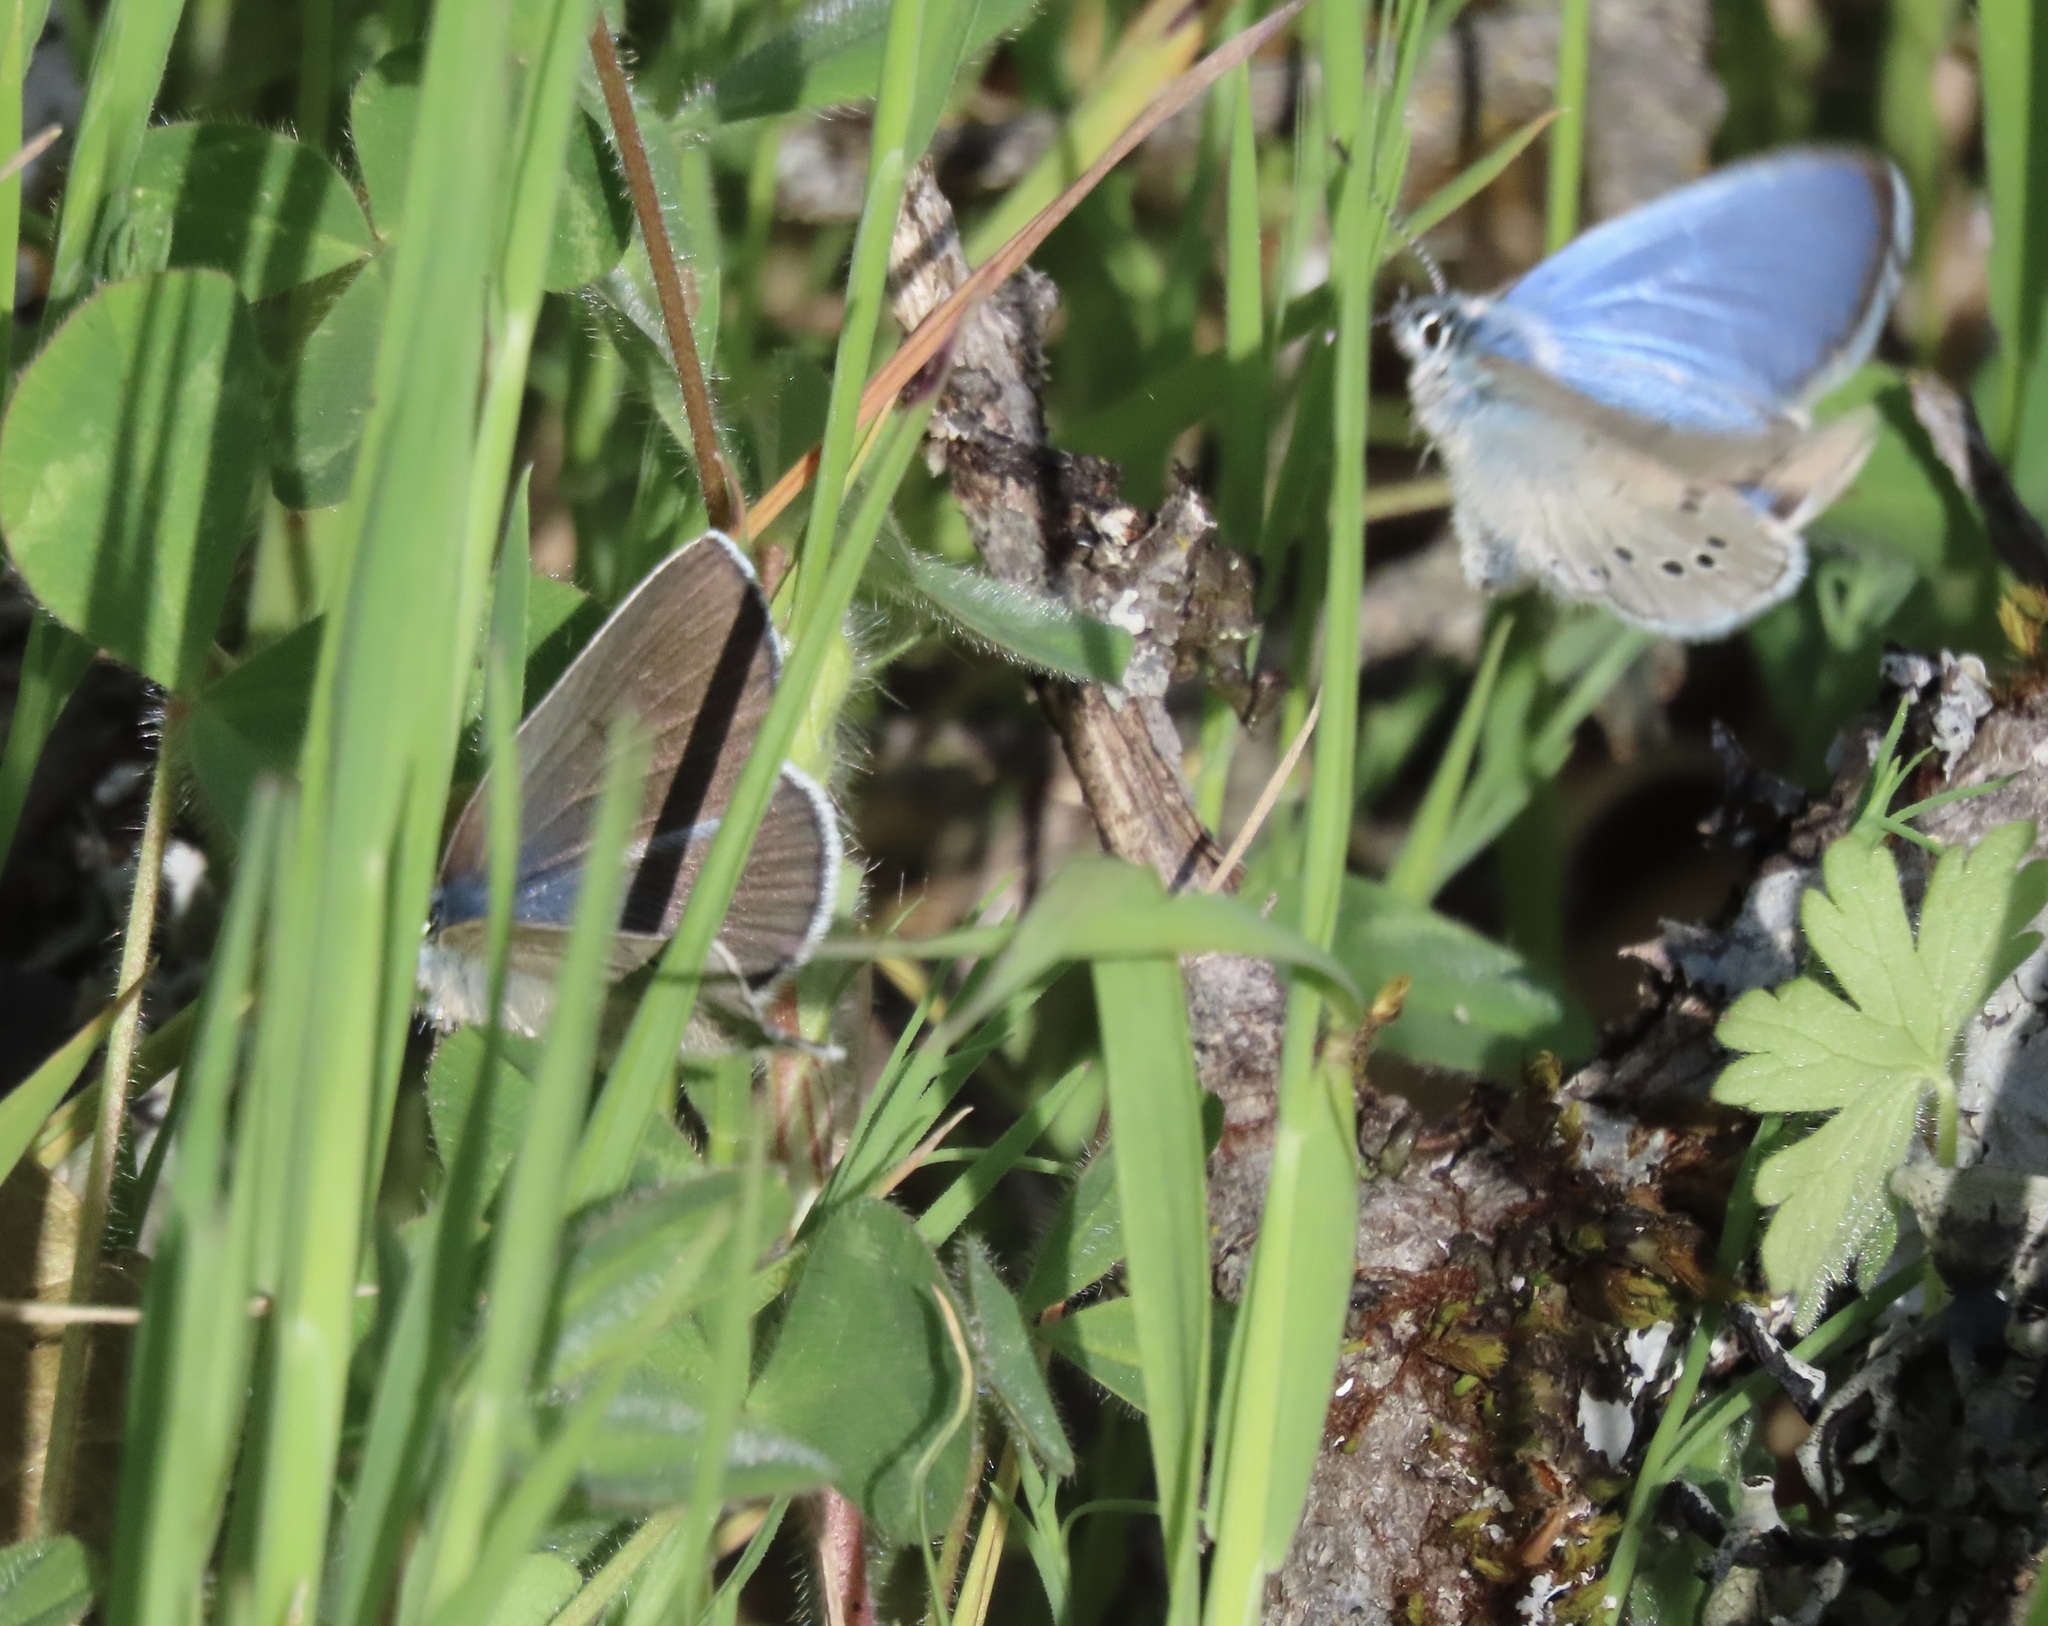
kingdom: Animalia
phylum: Arthropoda
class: Insecta
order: Lepidoptera
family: Lycaenidae
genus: Glaucopsyche
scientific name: Glaucopsyche lygdamus
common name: Silvery blue
